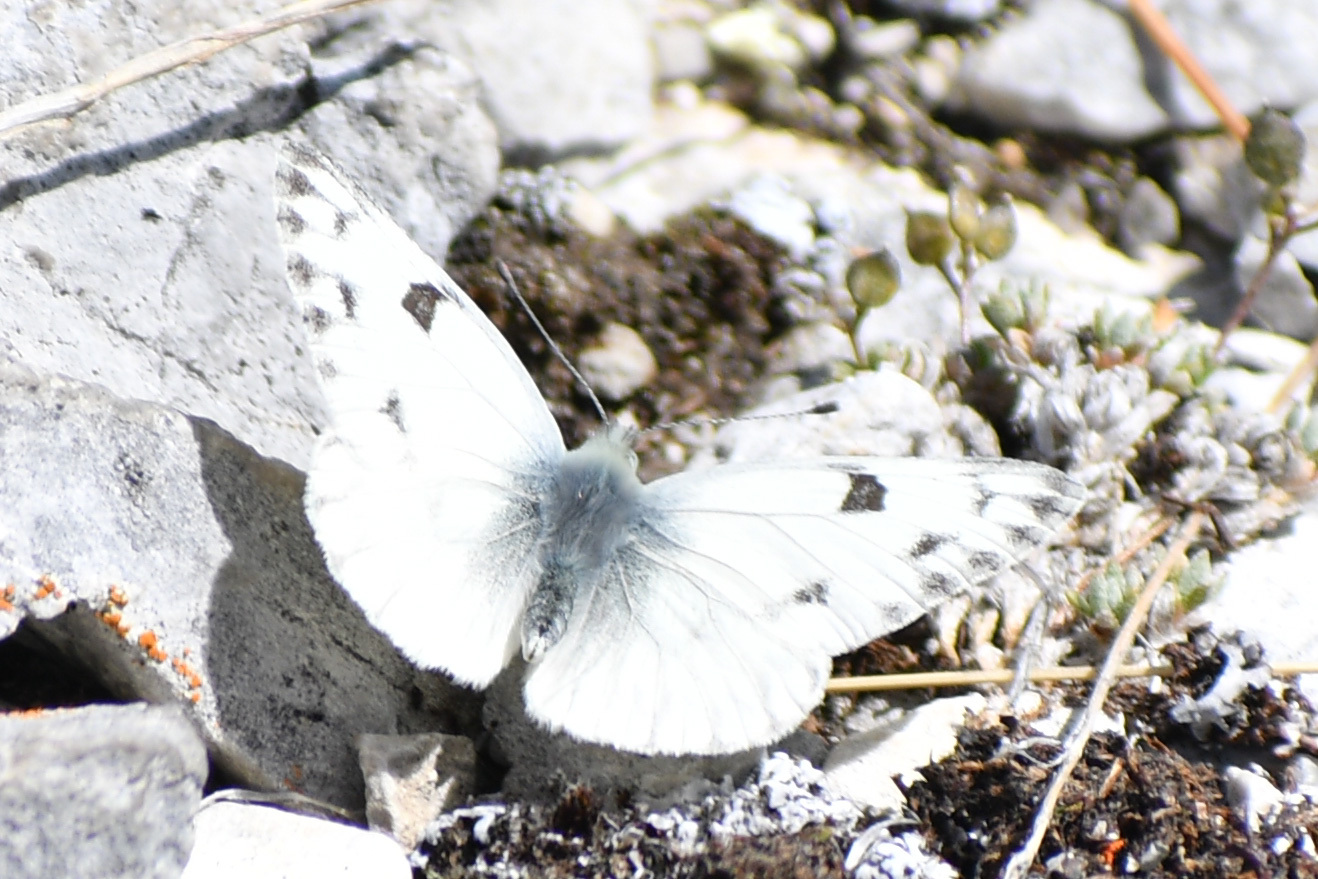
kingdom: Animalia
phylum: Arthropoda
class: Insecta
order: Lepidoptera
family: Pieridae
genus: Pontia
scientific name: Pontia occidentalis
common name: Western white
